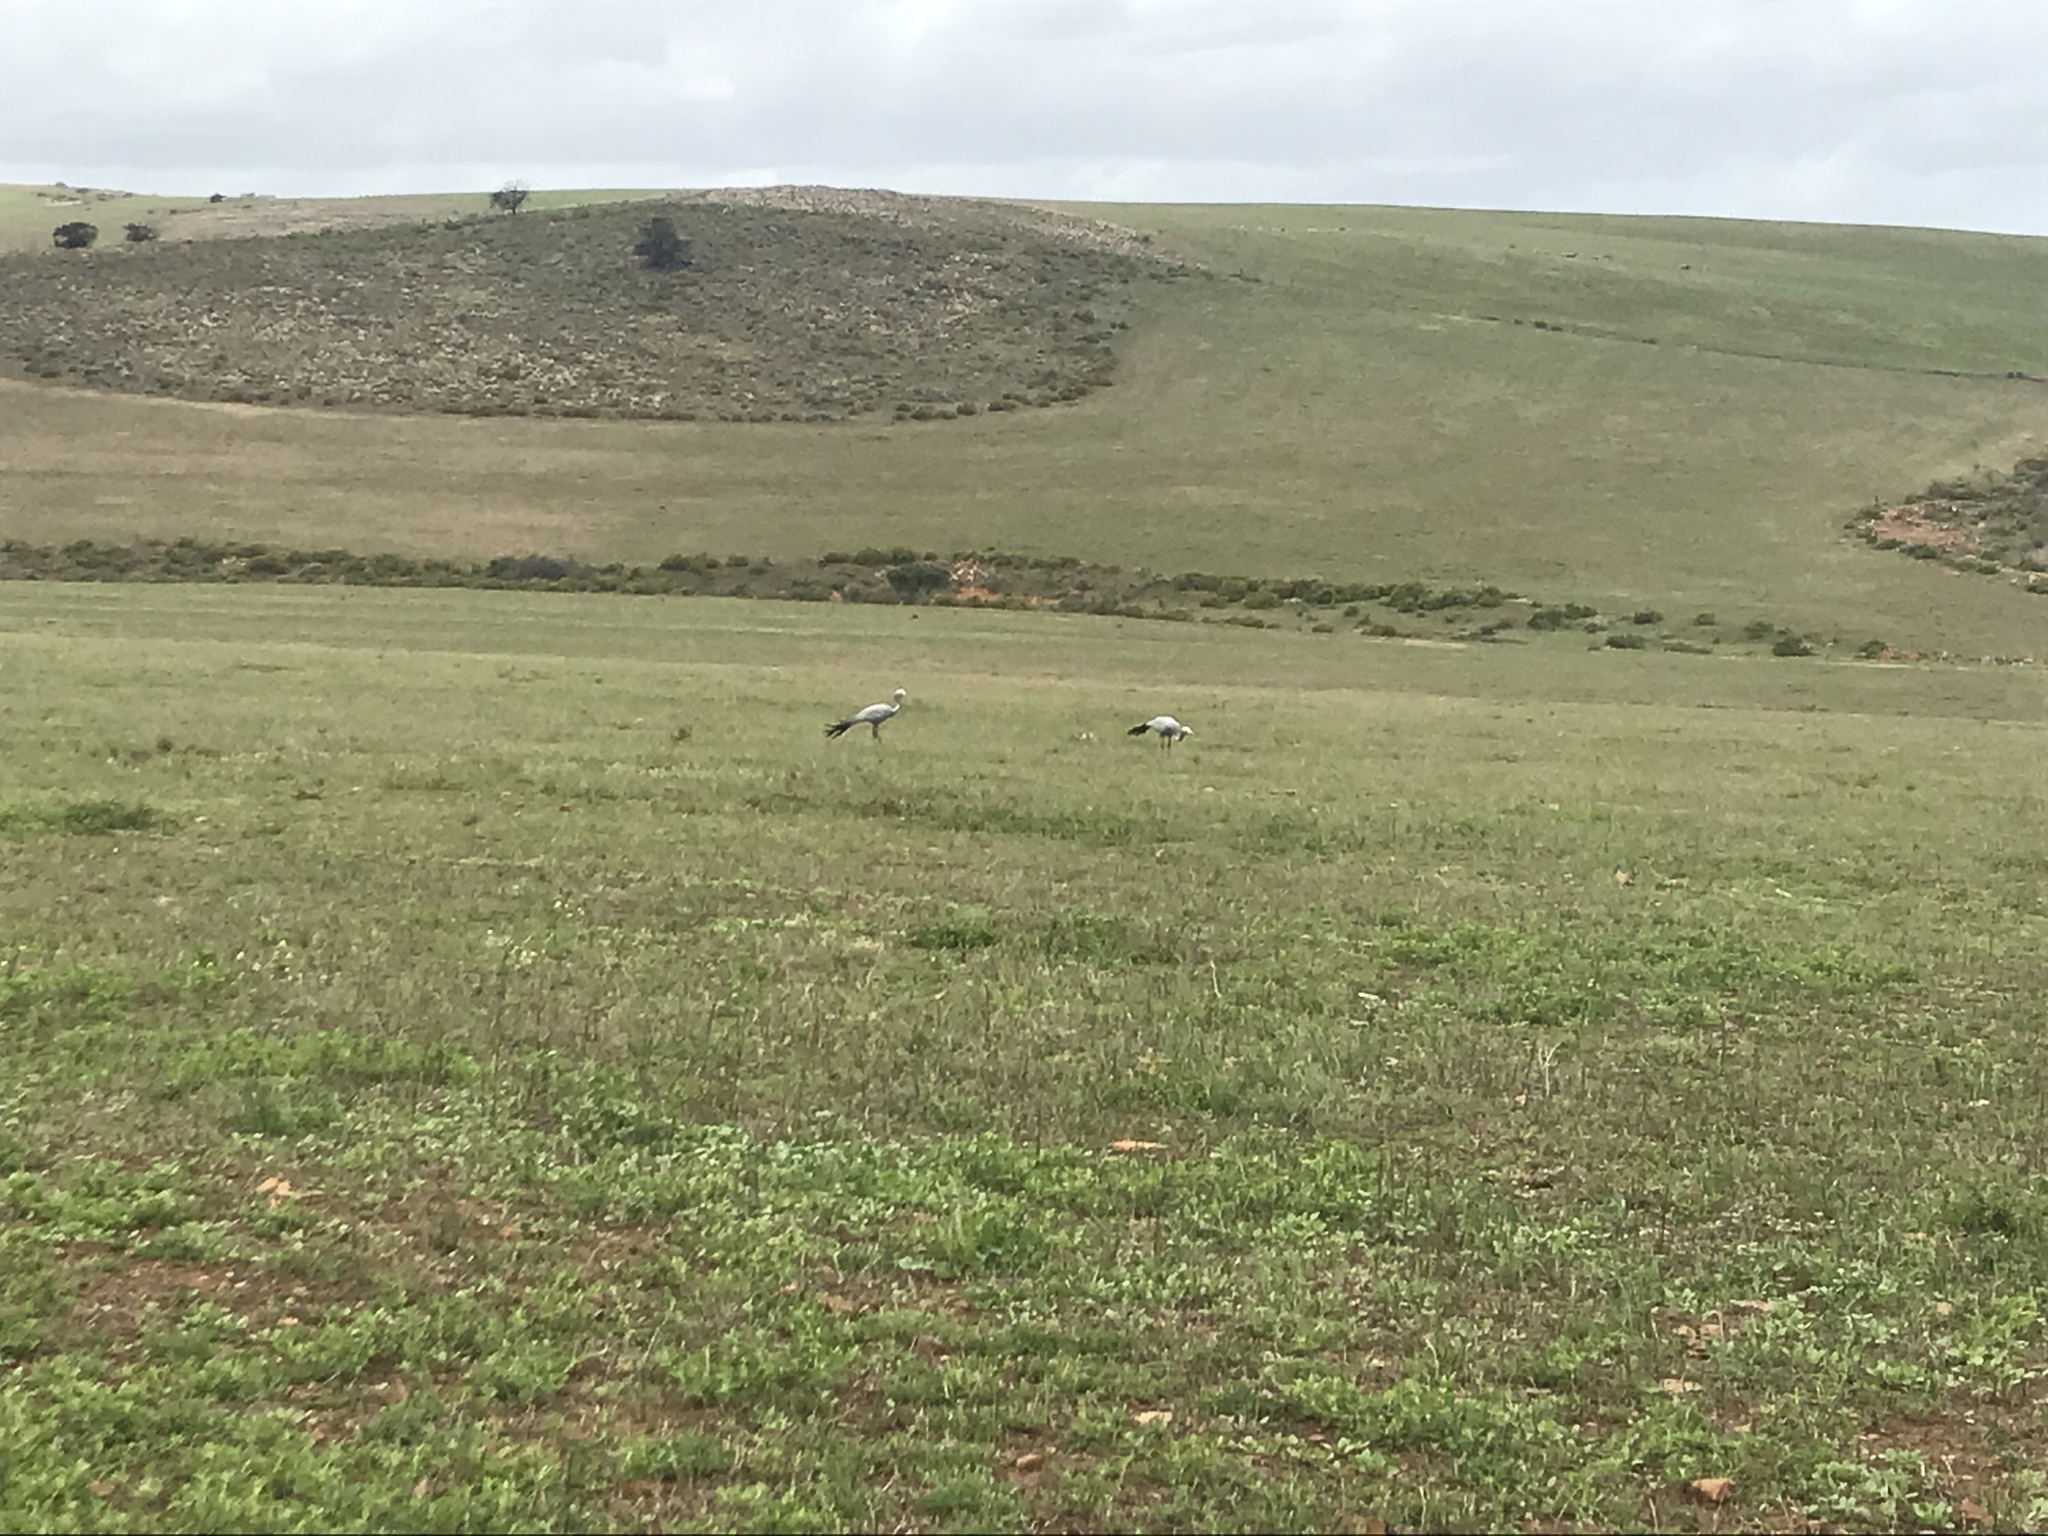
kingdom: Animalia
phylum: Chordata
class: Aves
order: Gruiformes
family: Gruidae
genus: Anthropoides
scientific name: Anthropoides paradiseus
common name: Blue crane
